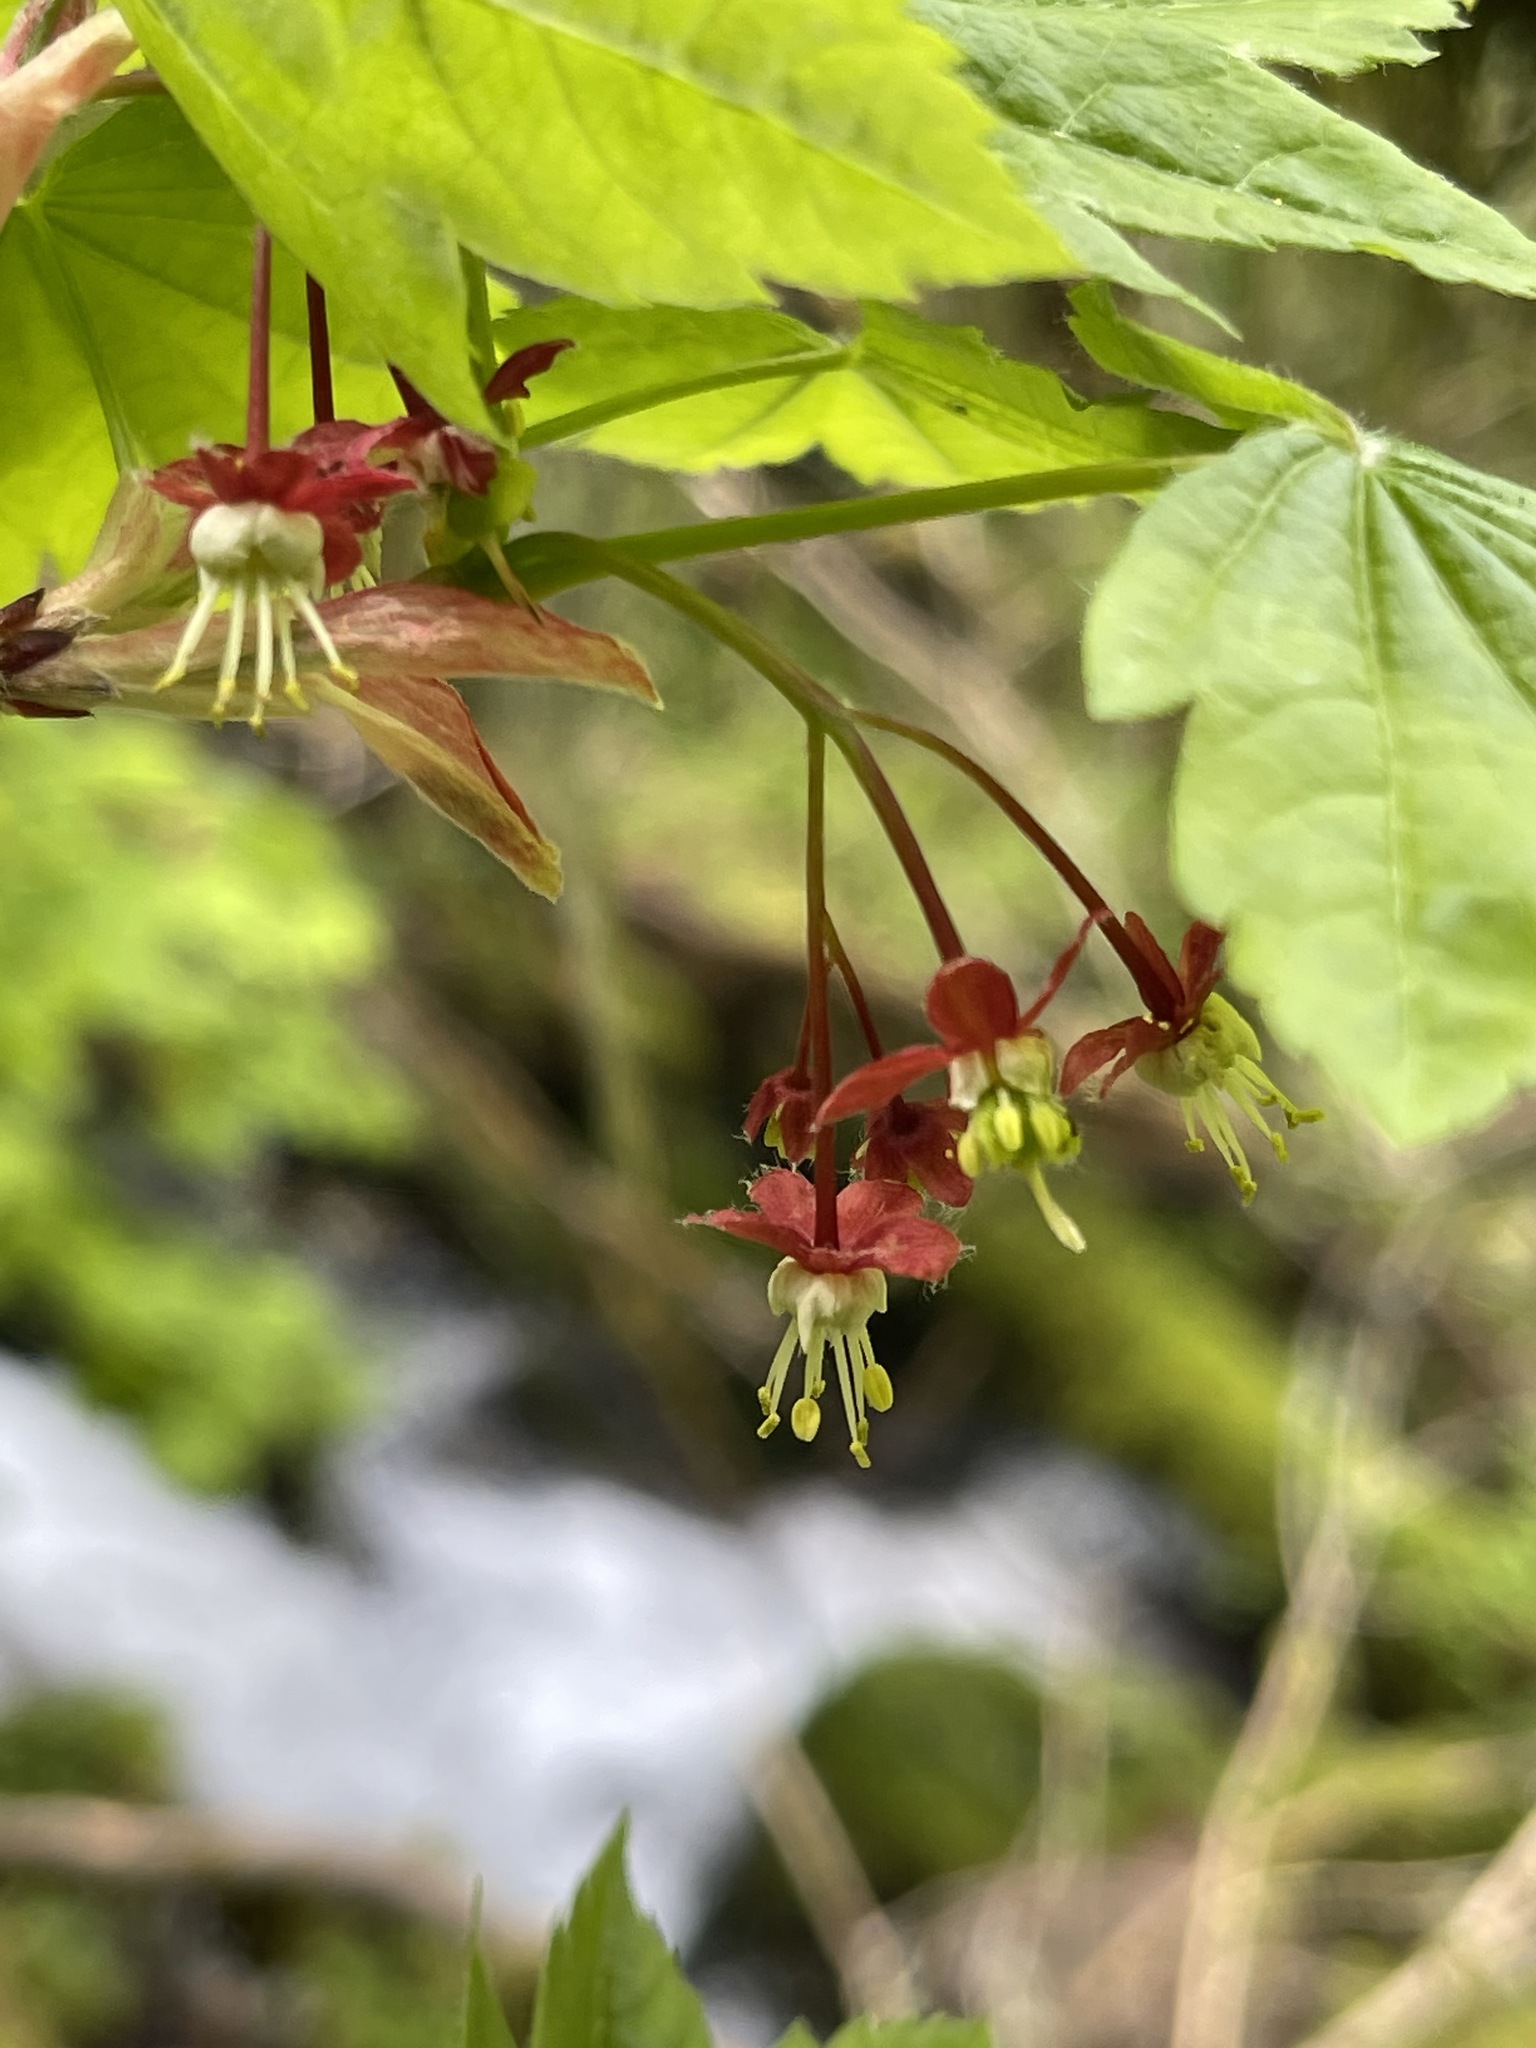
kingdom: Plantae
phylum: Tracheophyta
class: Magnoliopsida
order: Sapindales
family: Sapindaceae
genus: Acer
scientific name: Acer circinatum
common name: Vine maple
